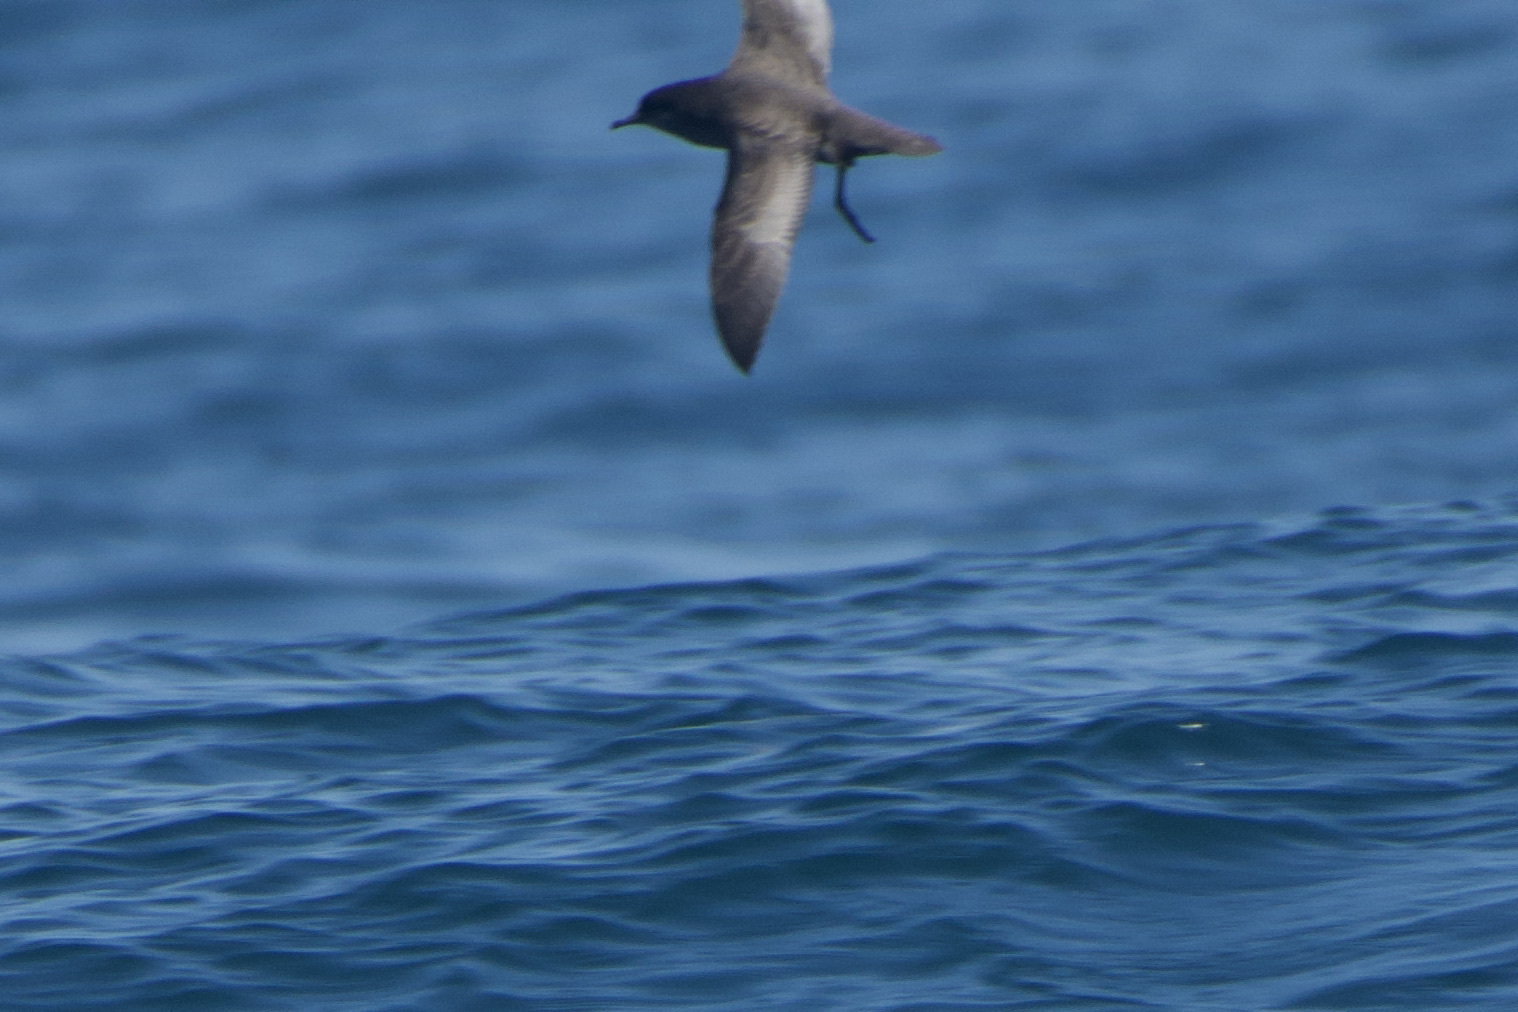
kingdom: Animalia
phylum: Chordata
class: Aves
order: Procellariiformes
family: Procellariidae
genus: Puffinus
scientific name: Puffinus griseus
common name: Sooty shearwater
